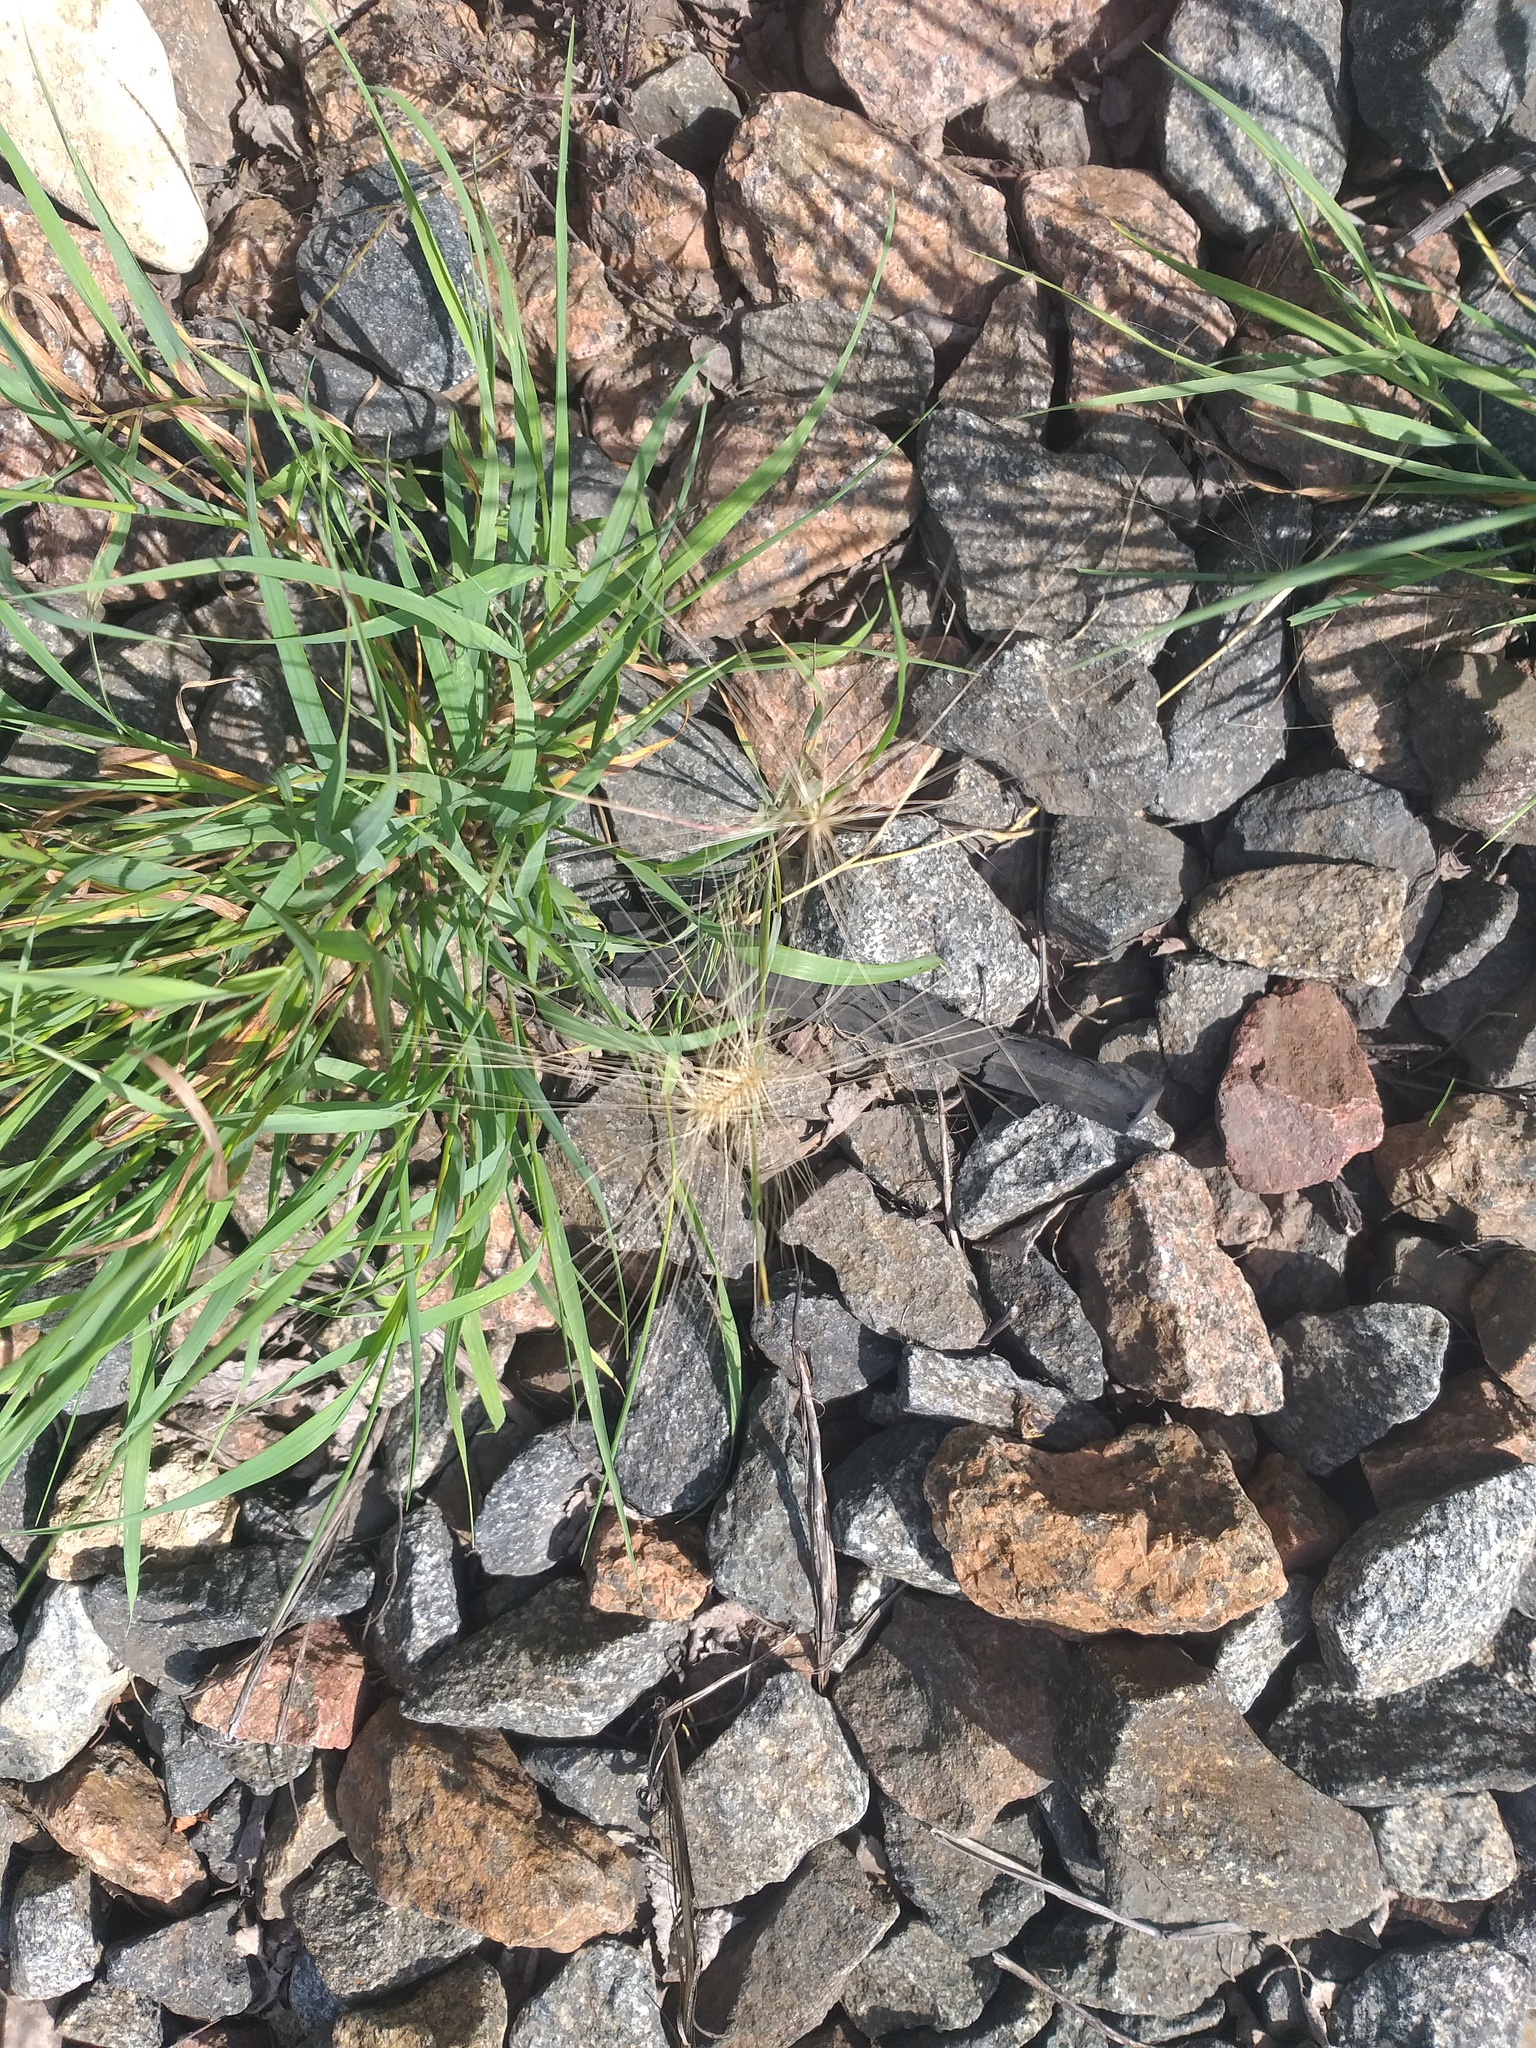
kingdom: Plantae
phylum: Tracheophyta
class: Liliopsida
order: Poales
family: Poaceae
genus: Hordeum
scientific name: Hordeum jubatum
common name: Foxtail barley
